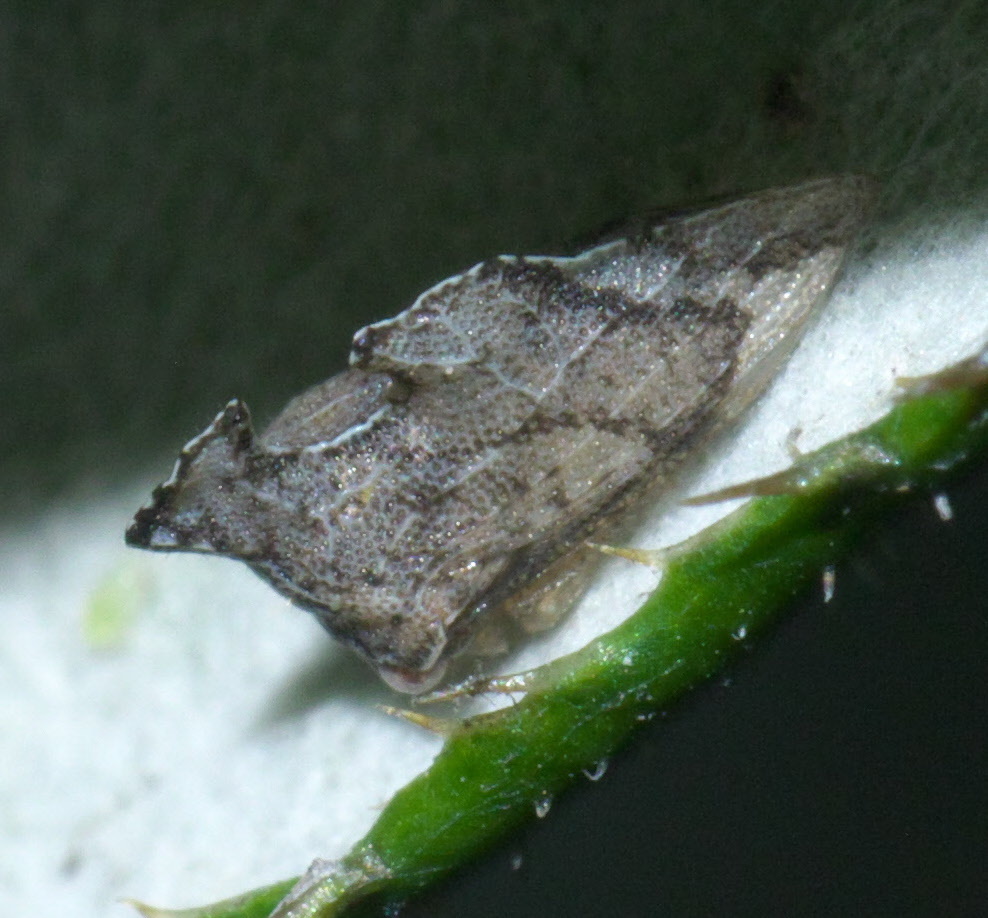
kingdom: Animalia
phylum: Arthropoda
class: Insecta
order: Hemiptera
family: Membracidae
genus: Entylia
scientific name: Entylia carinata
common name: Keeled treehopper
